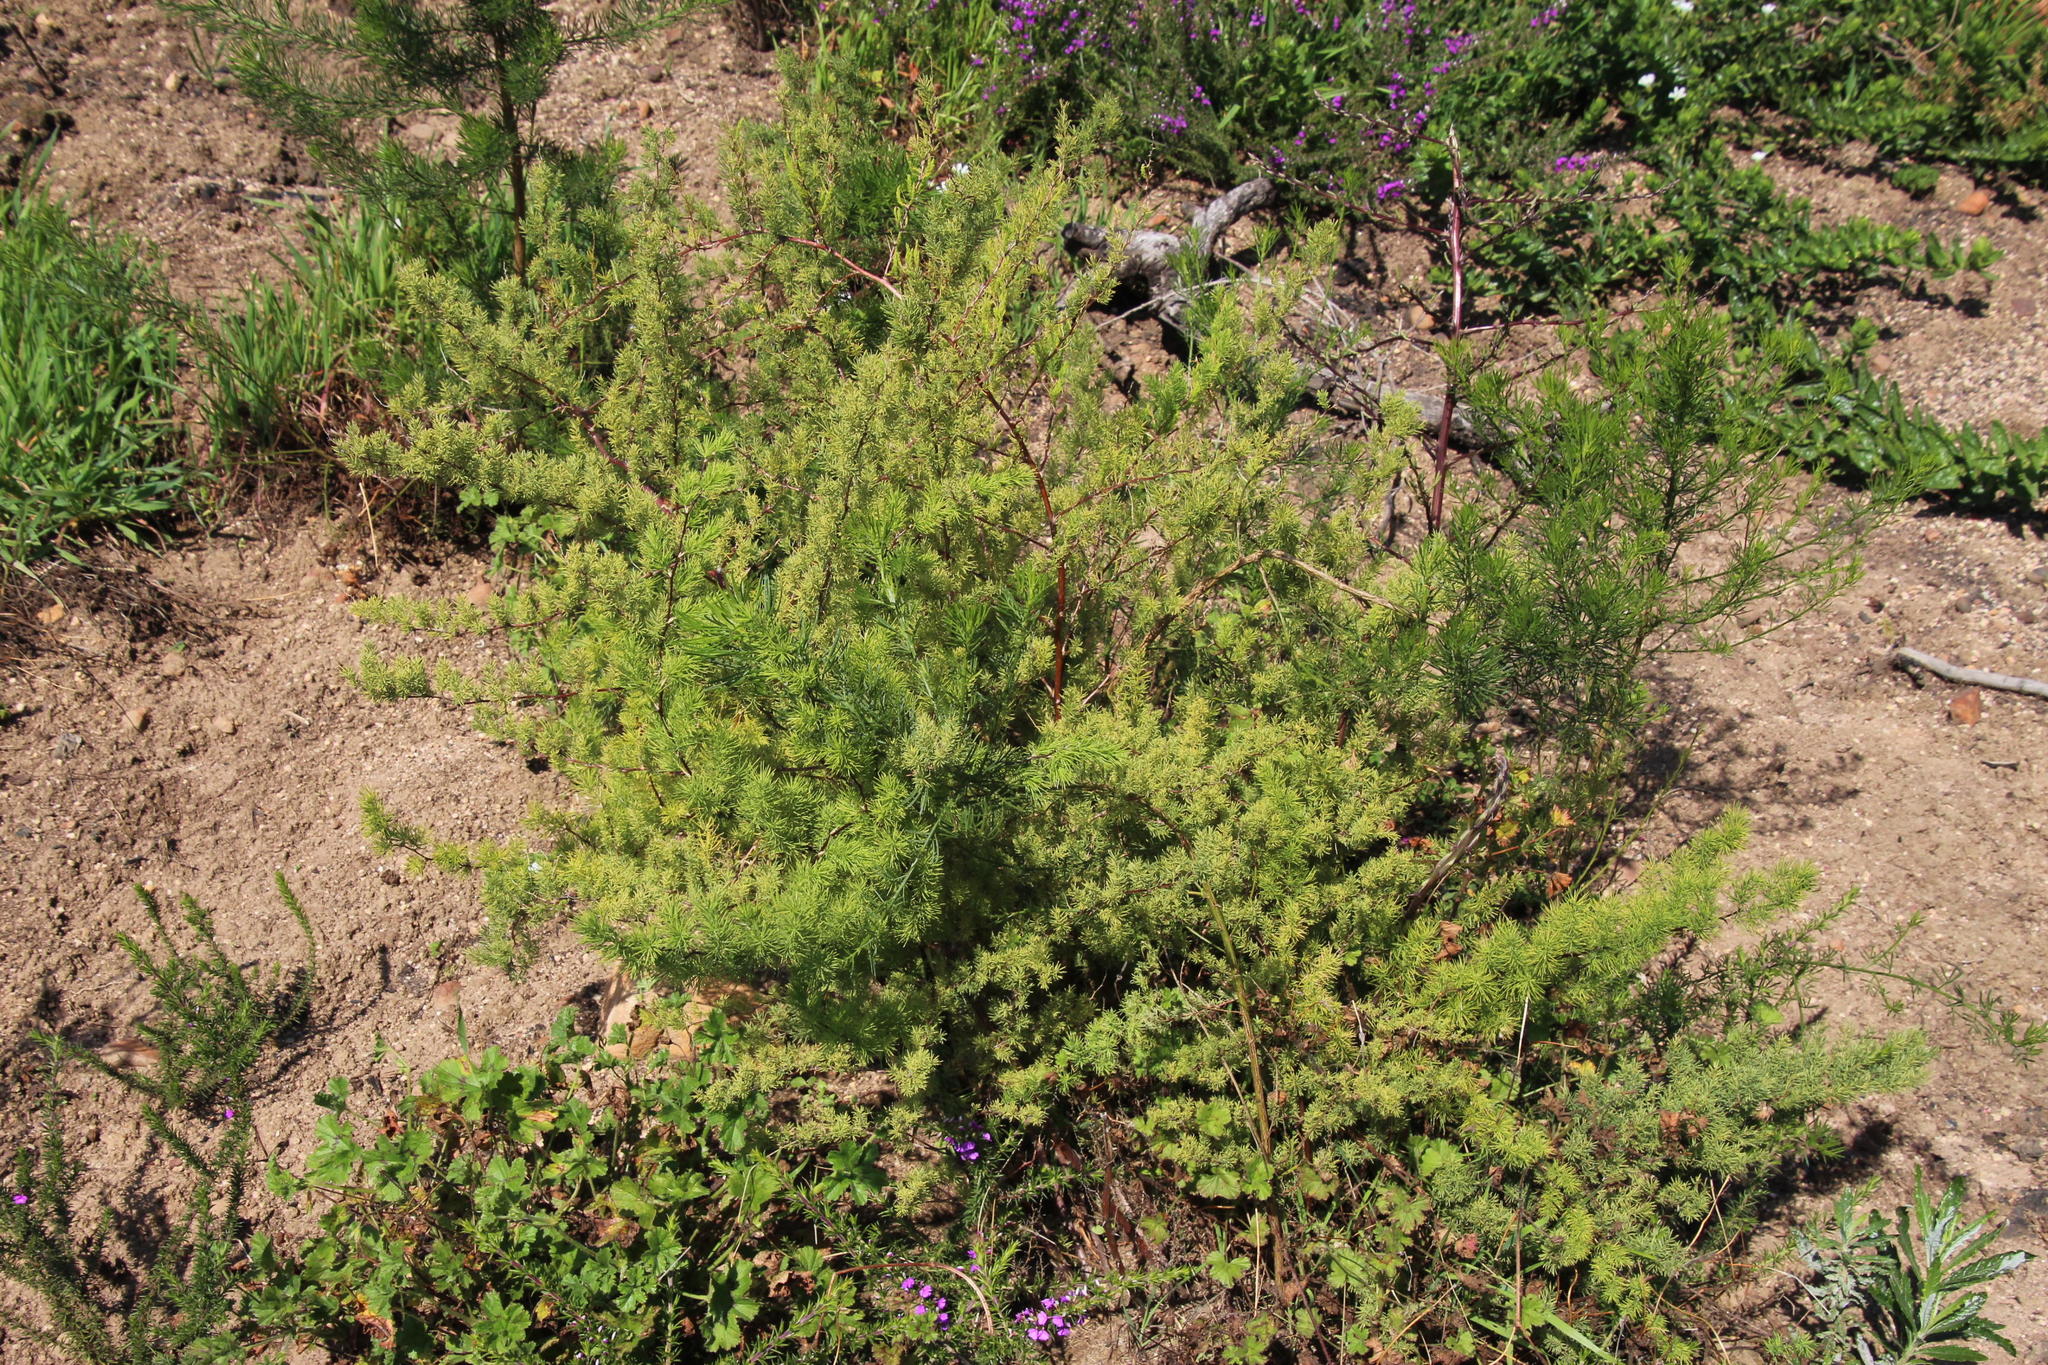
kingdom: Plantae
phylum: Tracheophyta
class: Liliopsida
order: Asparagales
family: Asparagaceae
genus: Asparagus
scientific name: Asparagus rubicundus
